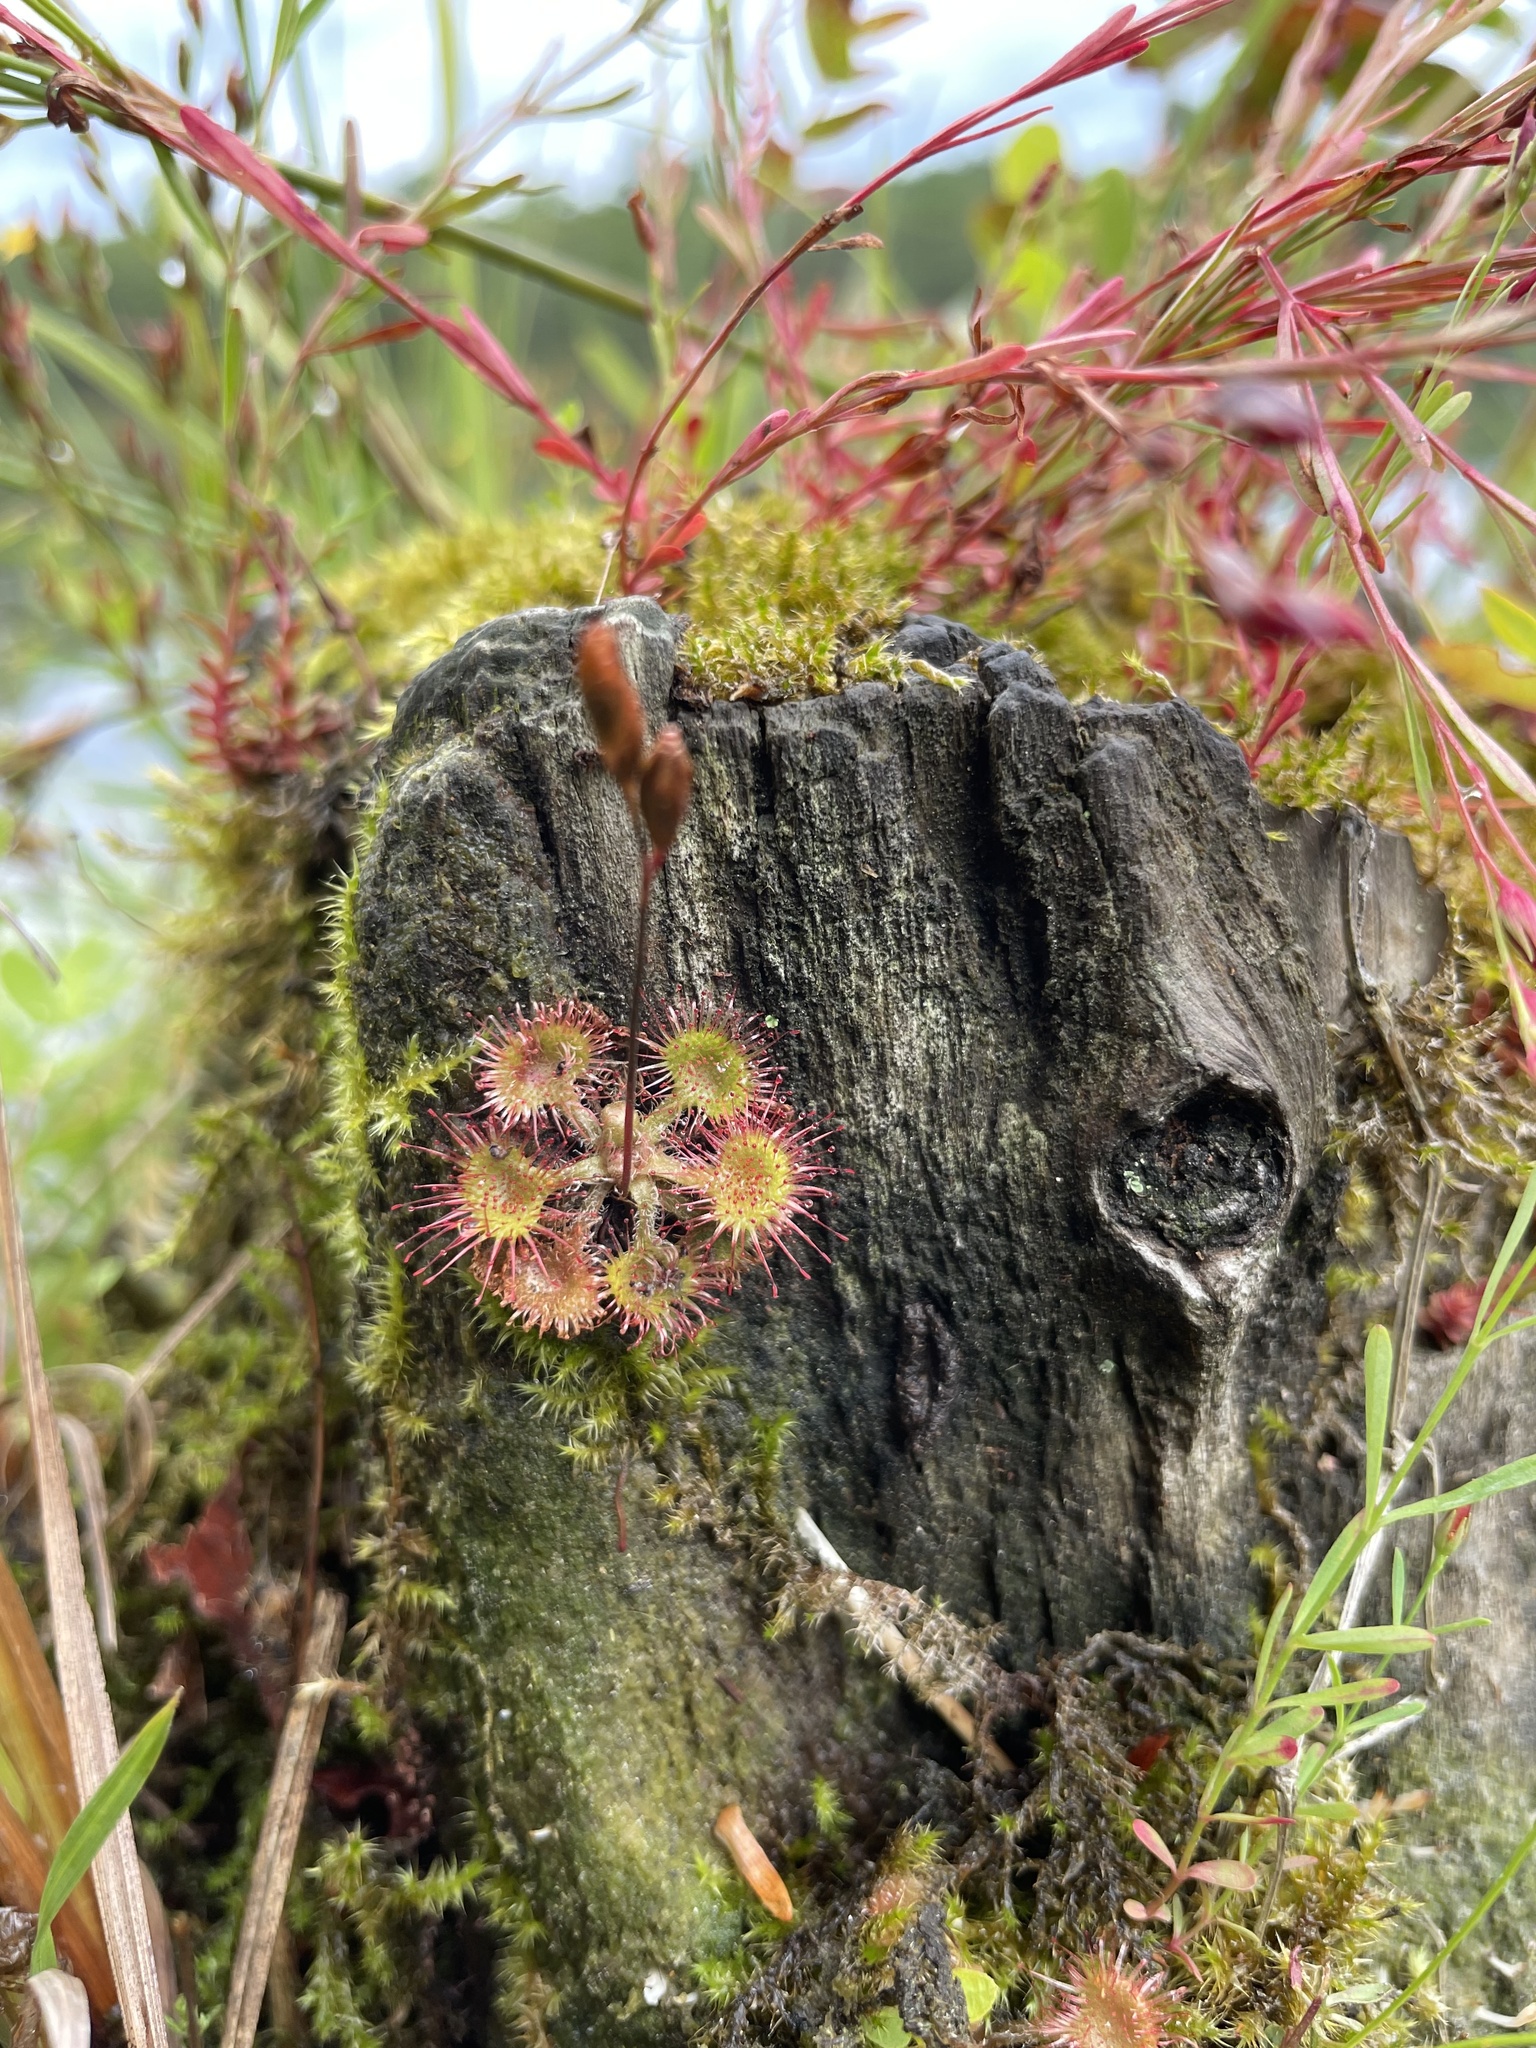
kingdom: Plantae
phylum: Tracheophyta
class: Magnoliopsida
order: Caryophyllales
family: Droseraceae
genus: Drosera
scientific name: Drosera rotundifolia
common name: Round-leaved sundew
